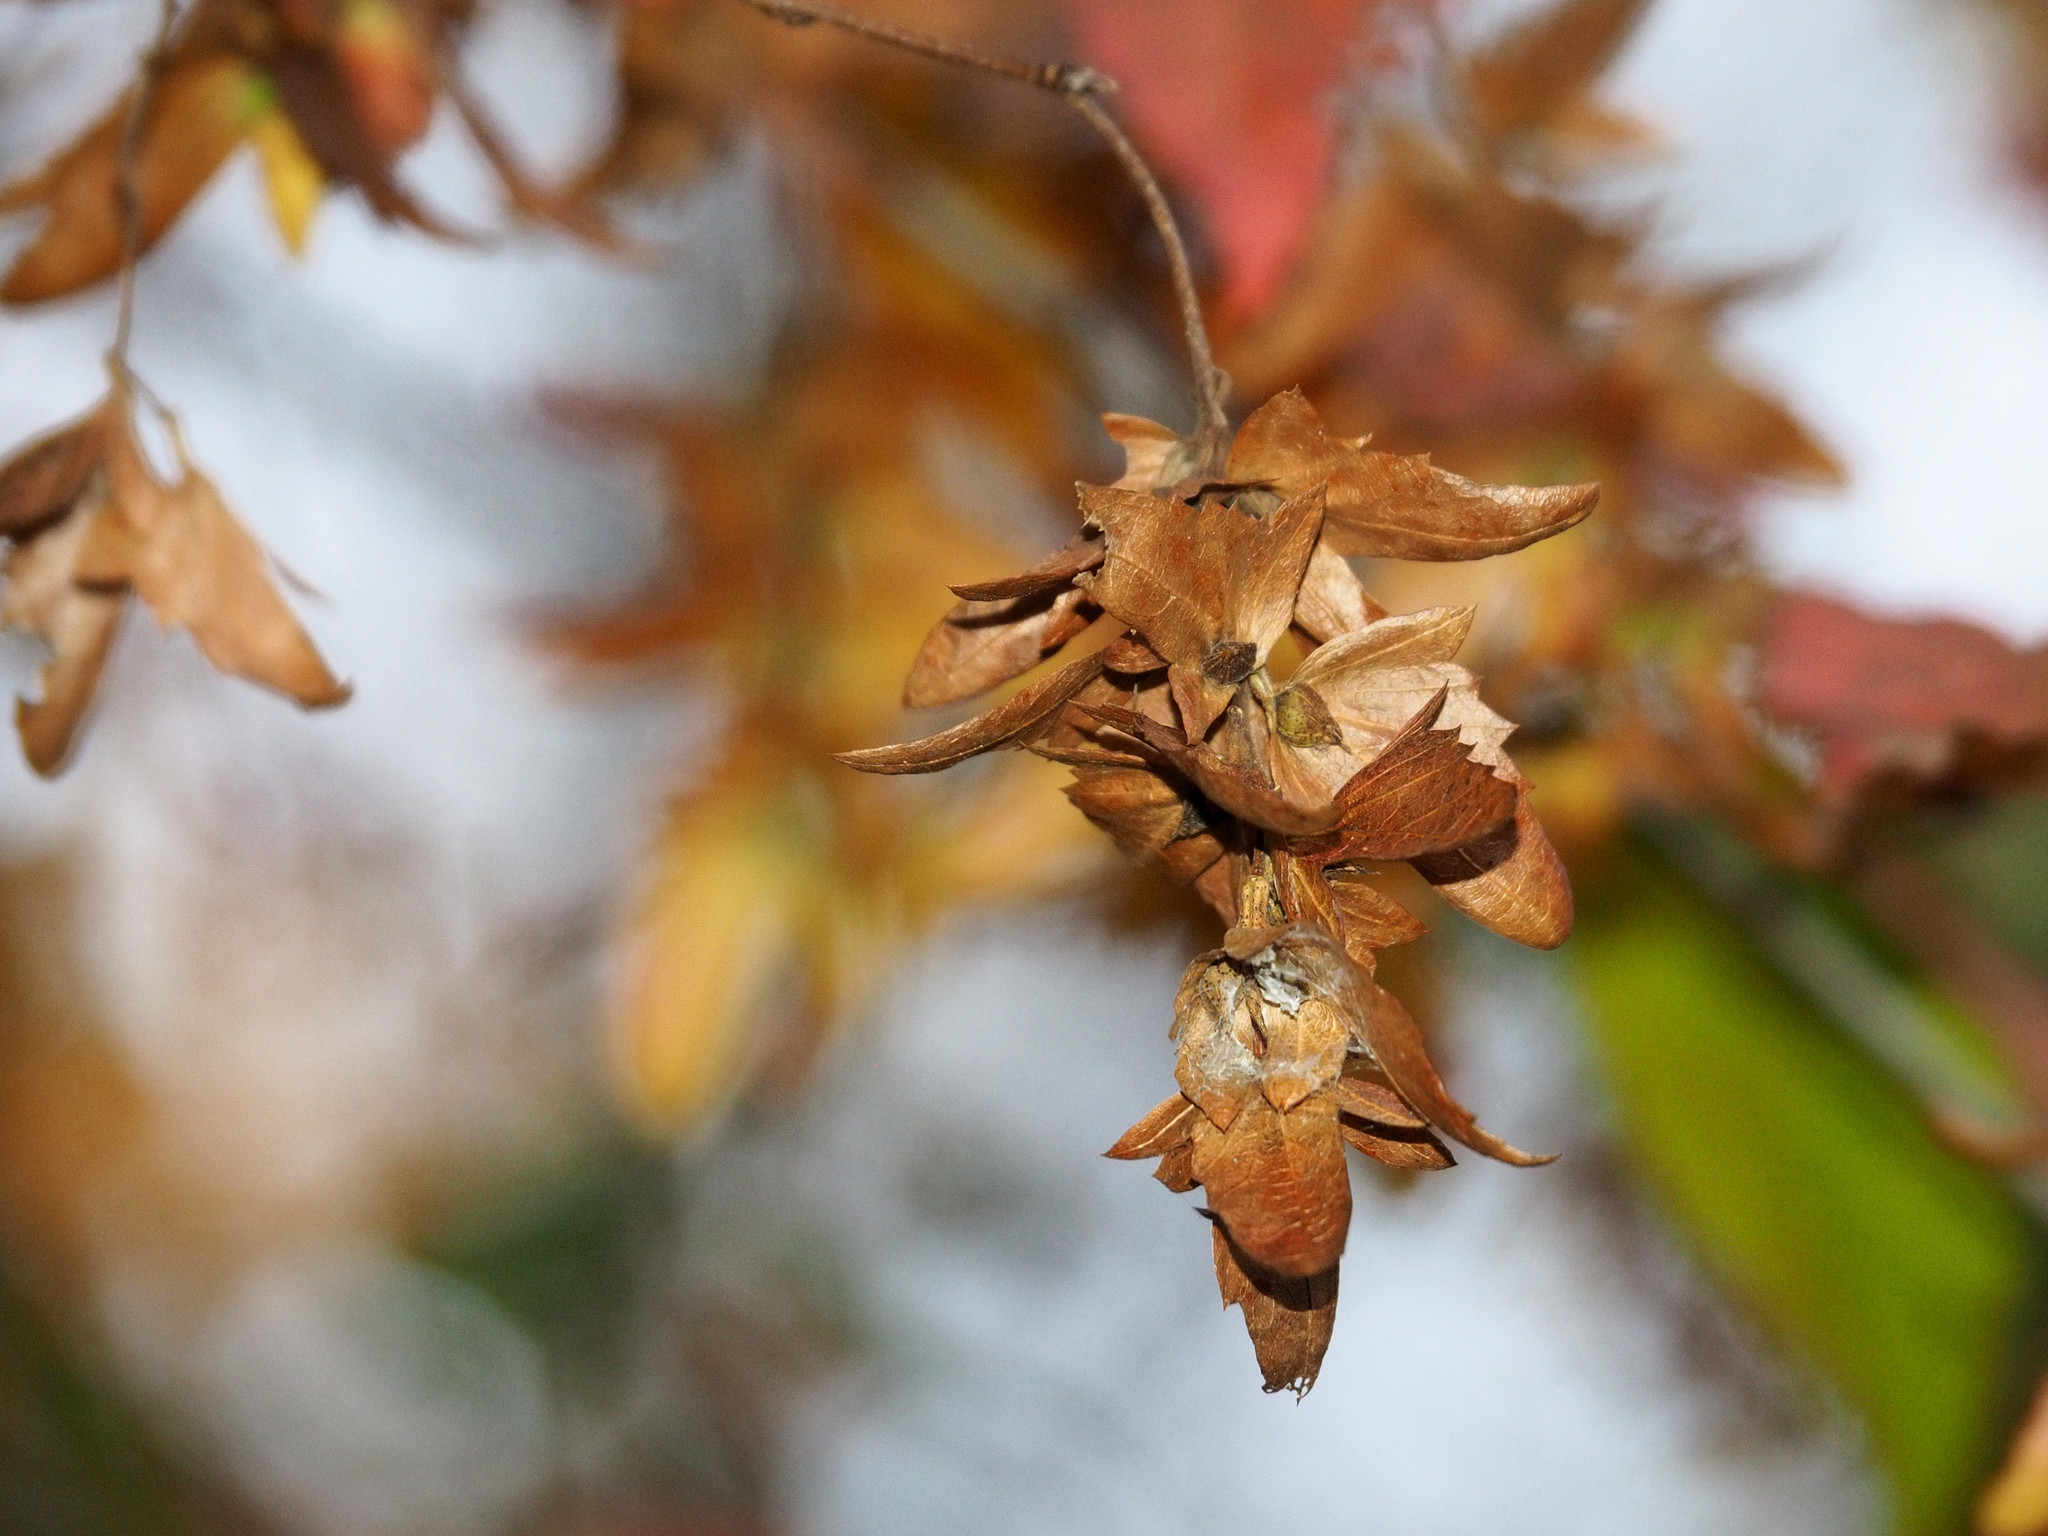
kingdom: Plantae
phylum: Tracheophyta
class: Magnoliopsida
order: Fagales
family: Betulaceae
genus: Carpinus
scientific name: Carpinus caroliniana
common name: American hornbeam
